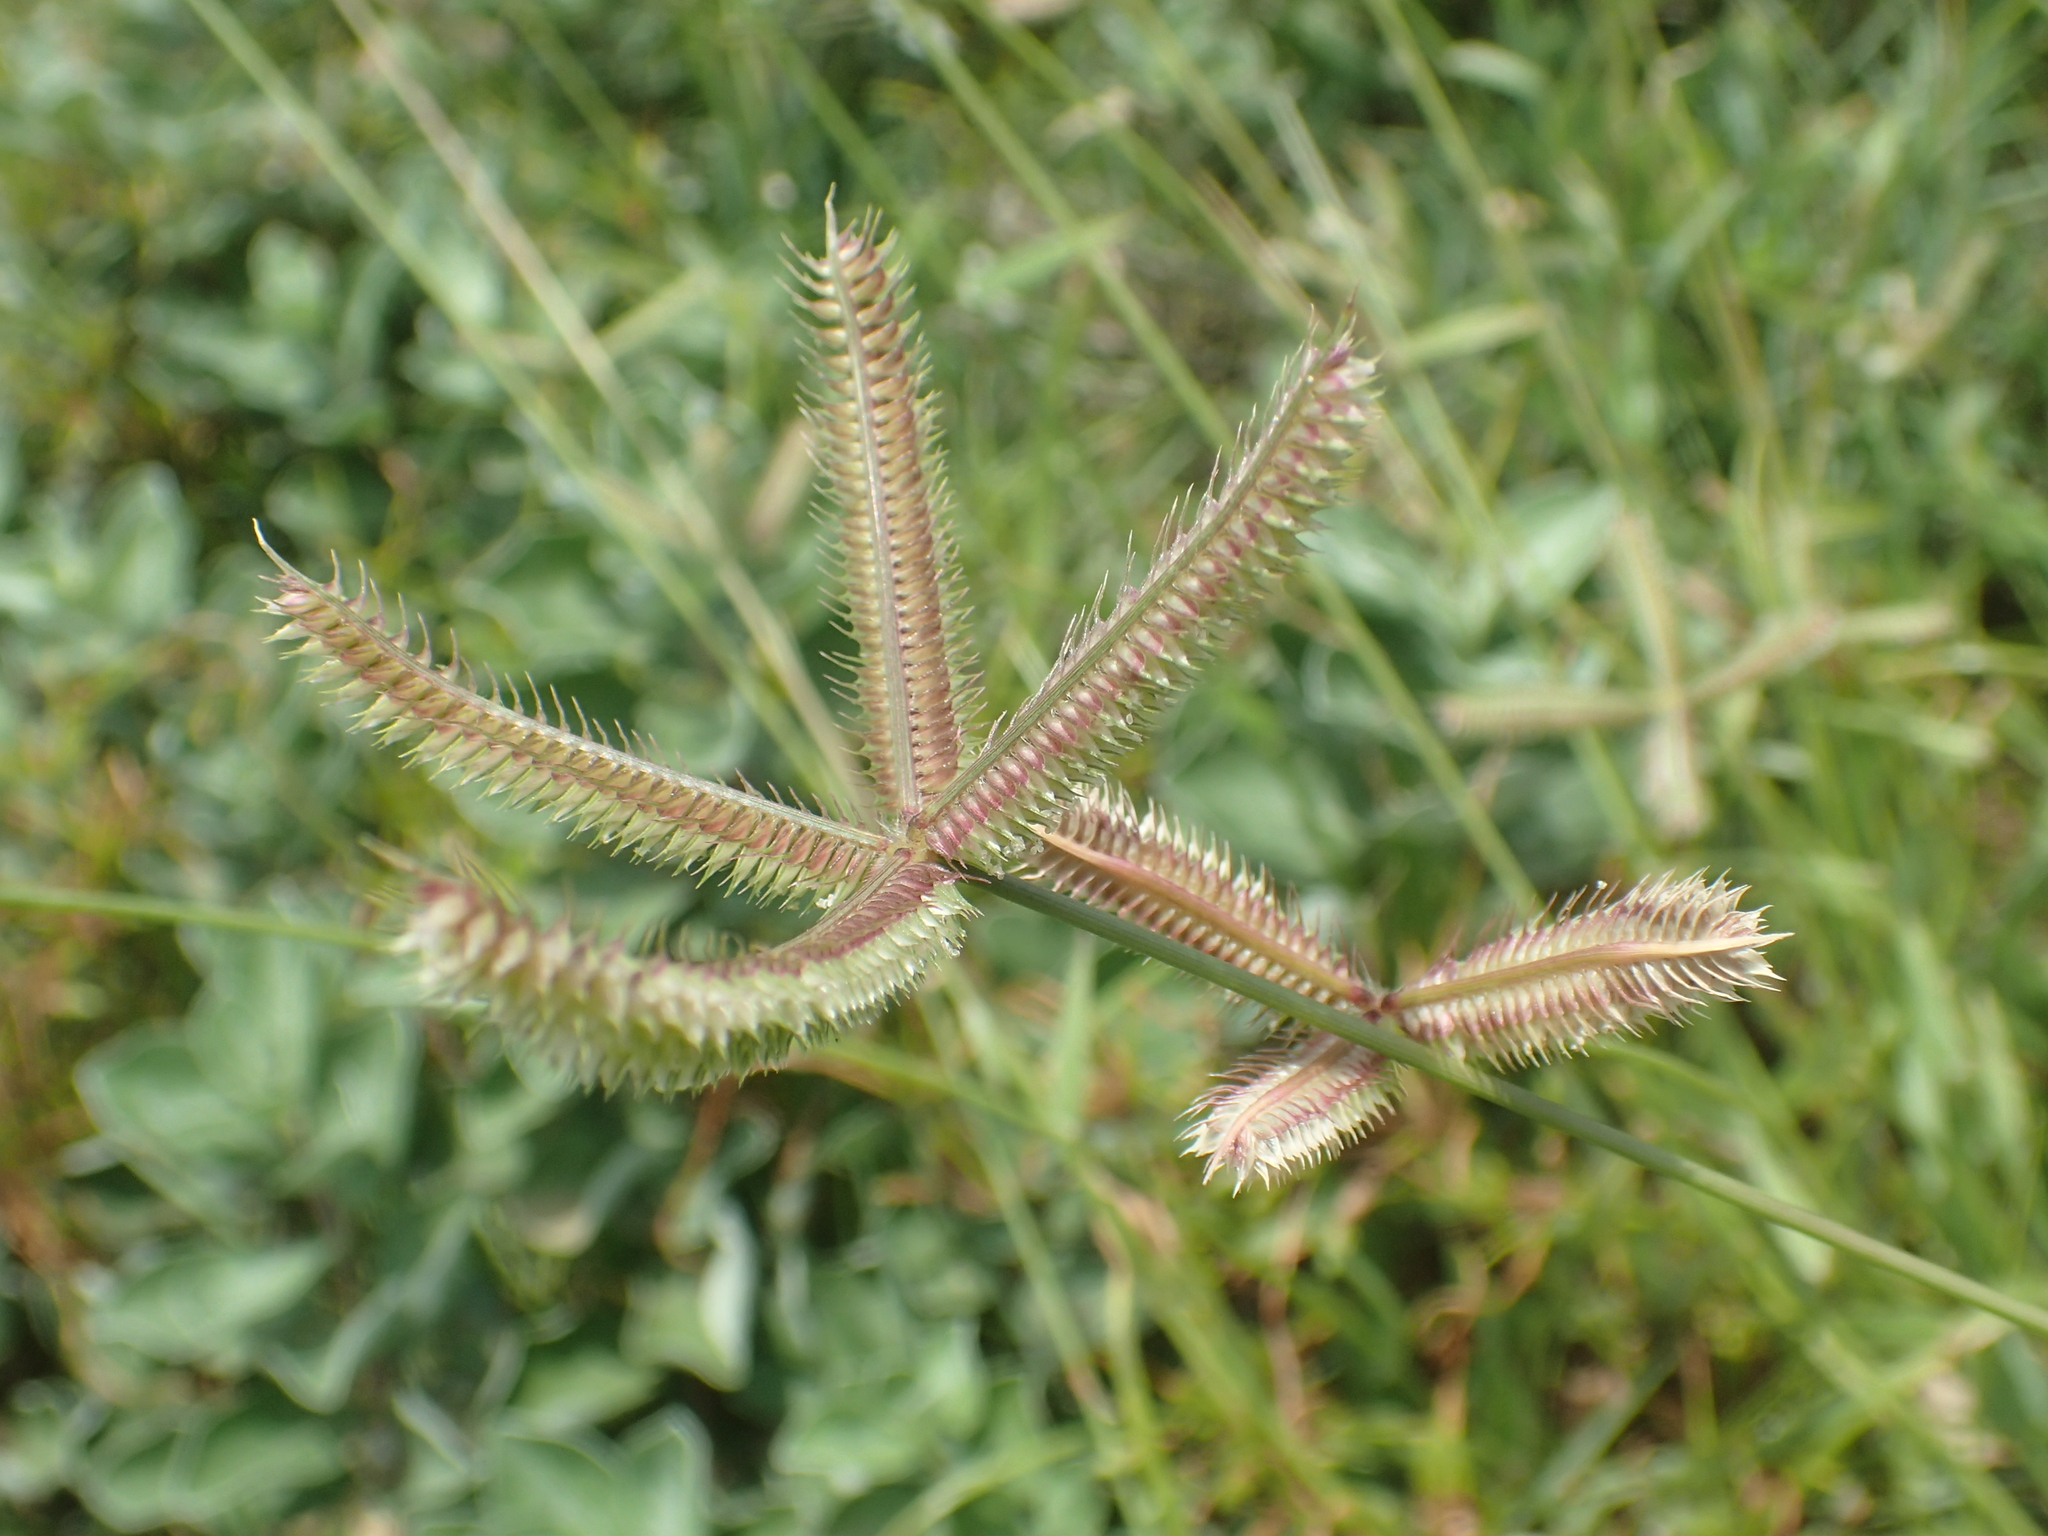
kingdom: Plantae
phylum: Tracheophyta
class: Liliopsida
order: Poales
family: Poaceae
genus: Dactyloctenium
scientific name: Dactyloctenium aegyptium
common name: Egyptian grass
